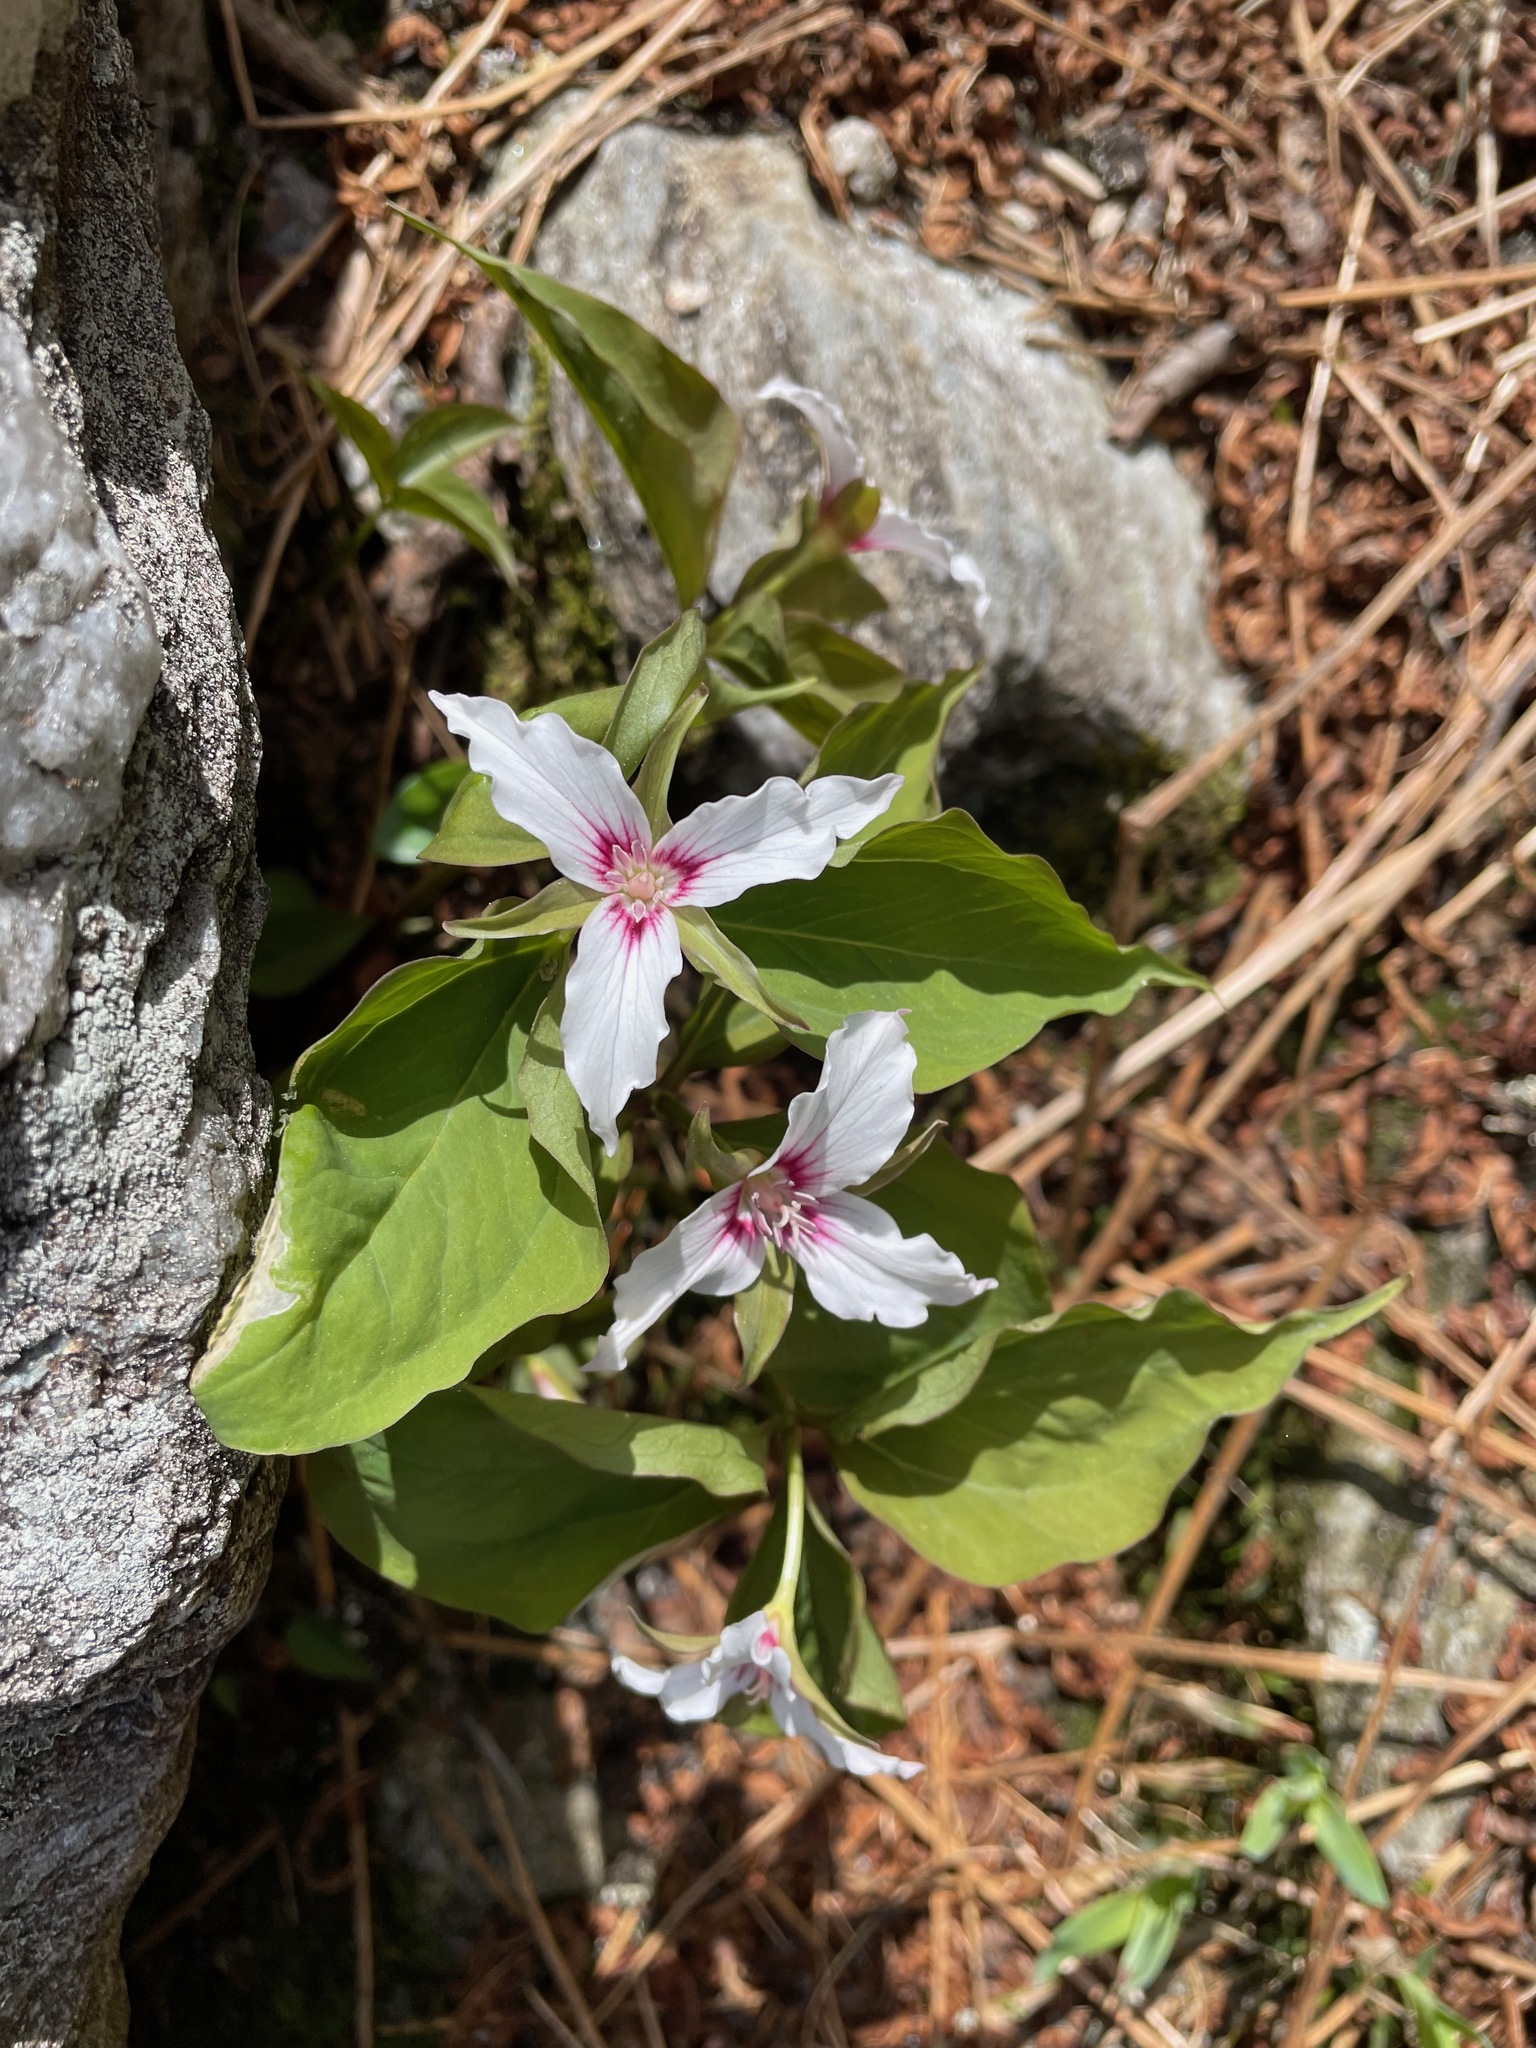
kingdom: Plantae
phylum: Tracheophyta
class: Liliopsida
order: Liliales
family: Melanthiaceae
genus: Trillium
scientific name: Trillium undulatum
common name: Paint trillium
